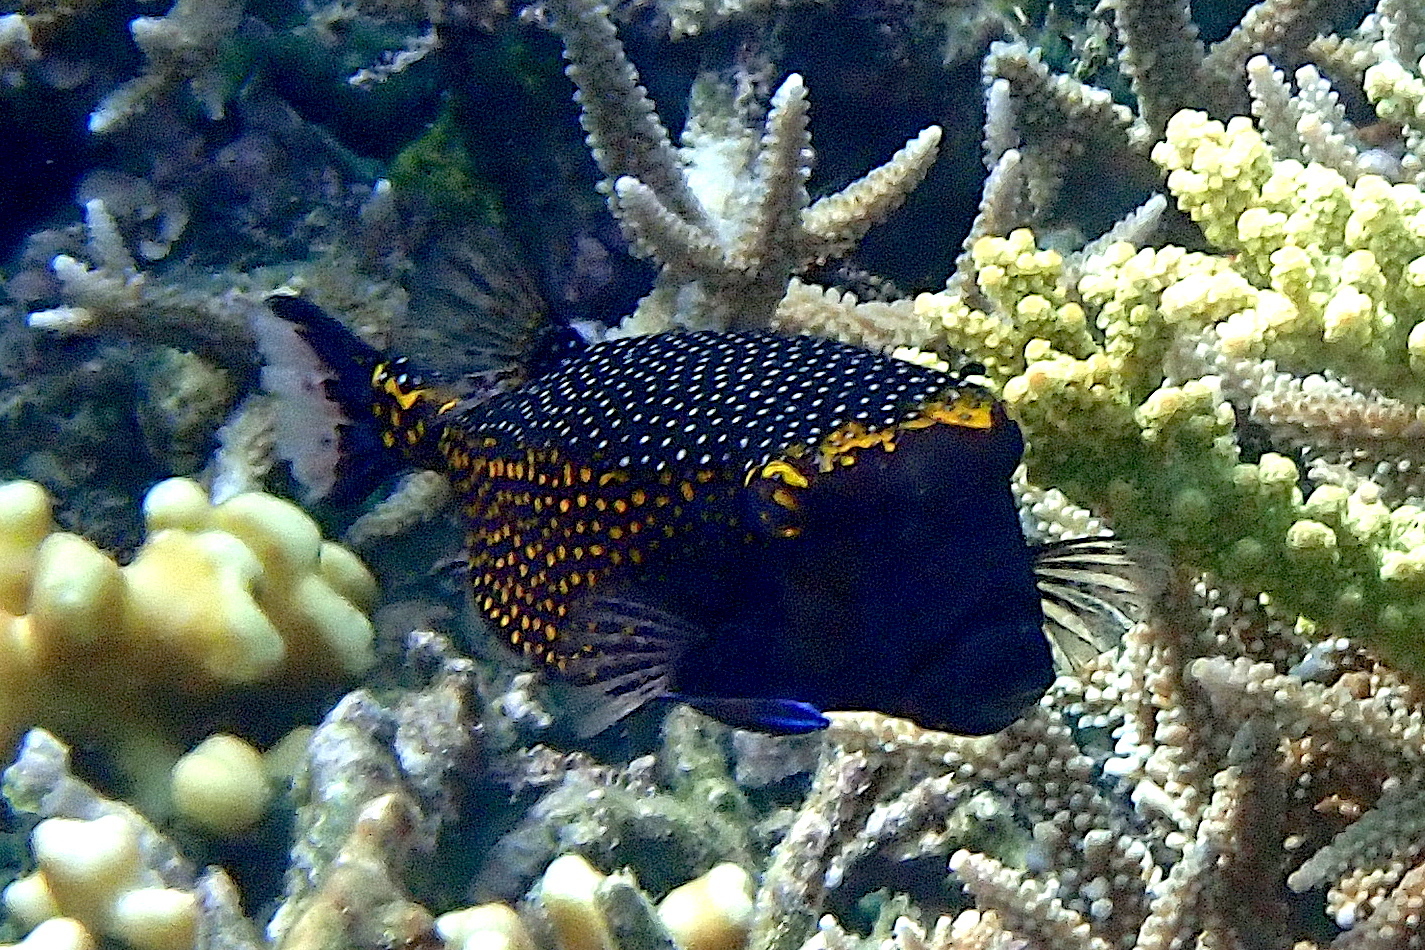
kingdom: Animalia
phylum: Chordata
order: Tetraodontiformes
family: Ostraciidae
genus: Ostracion
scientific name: Ostracion meleagris
